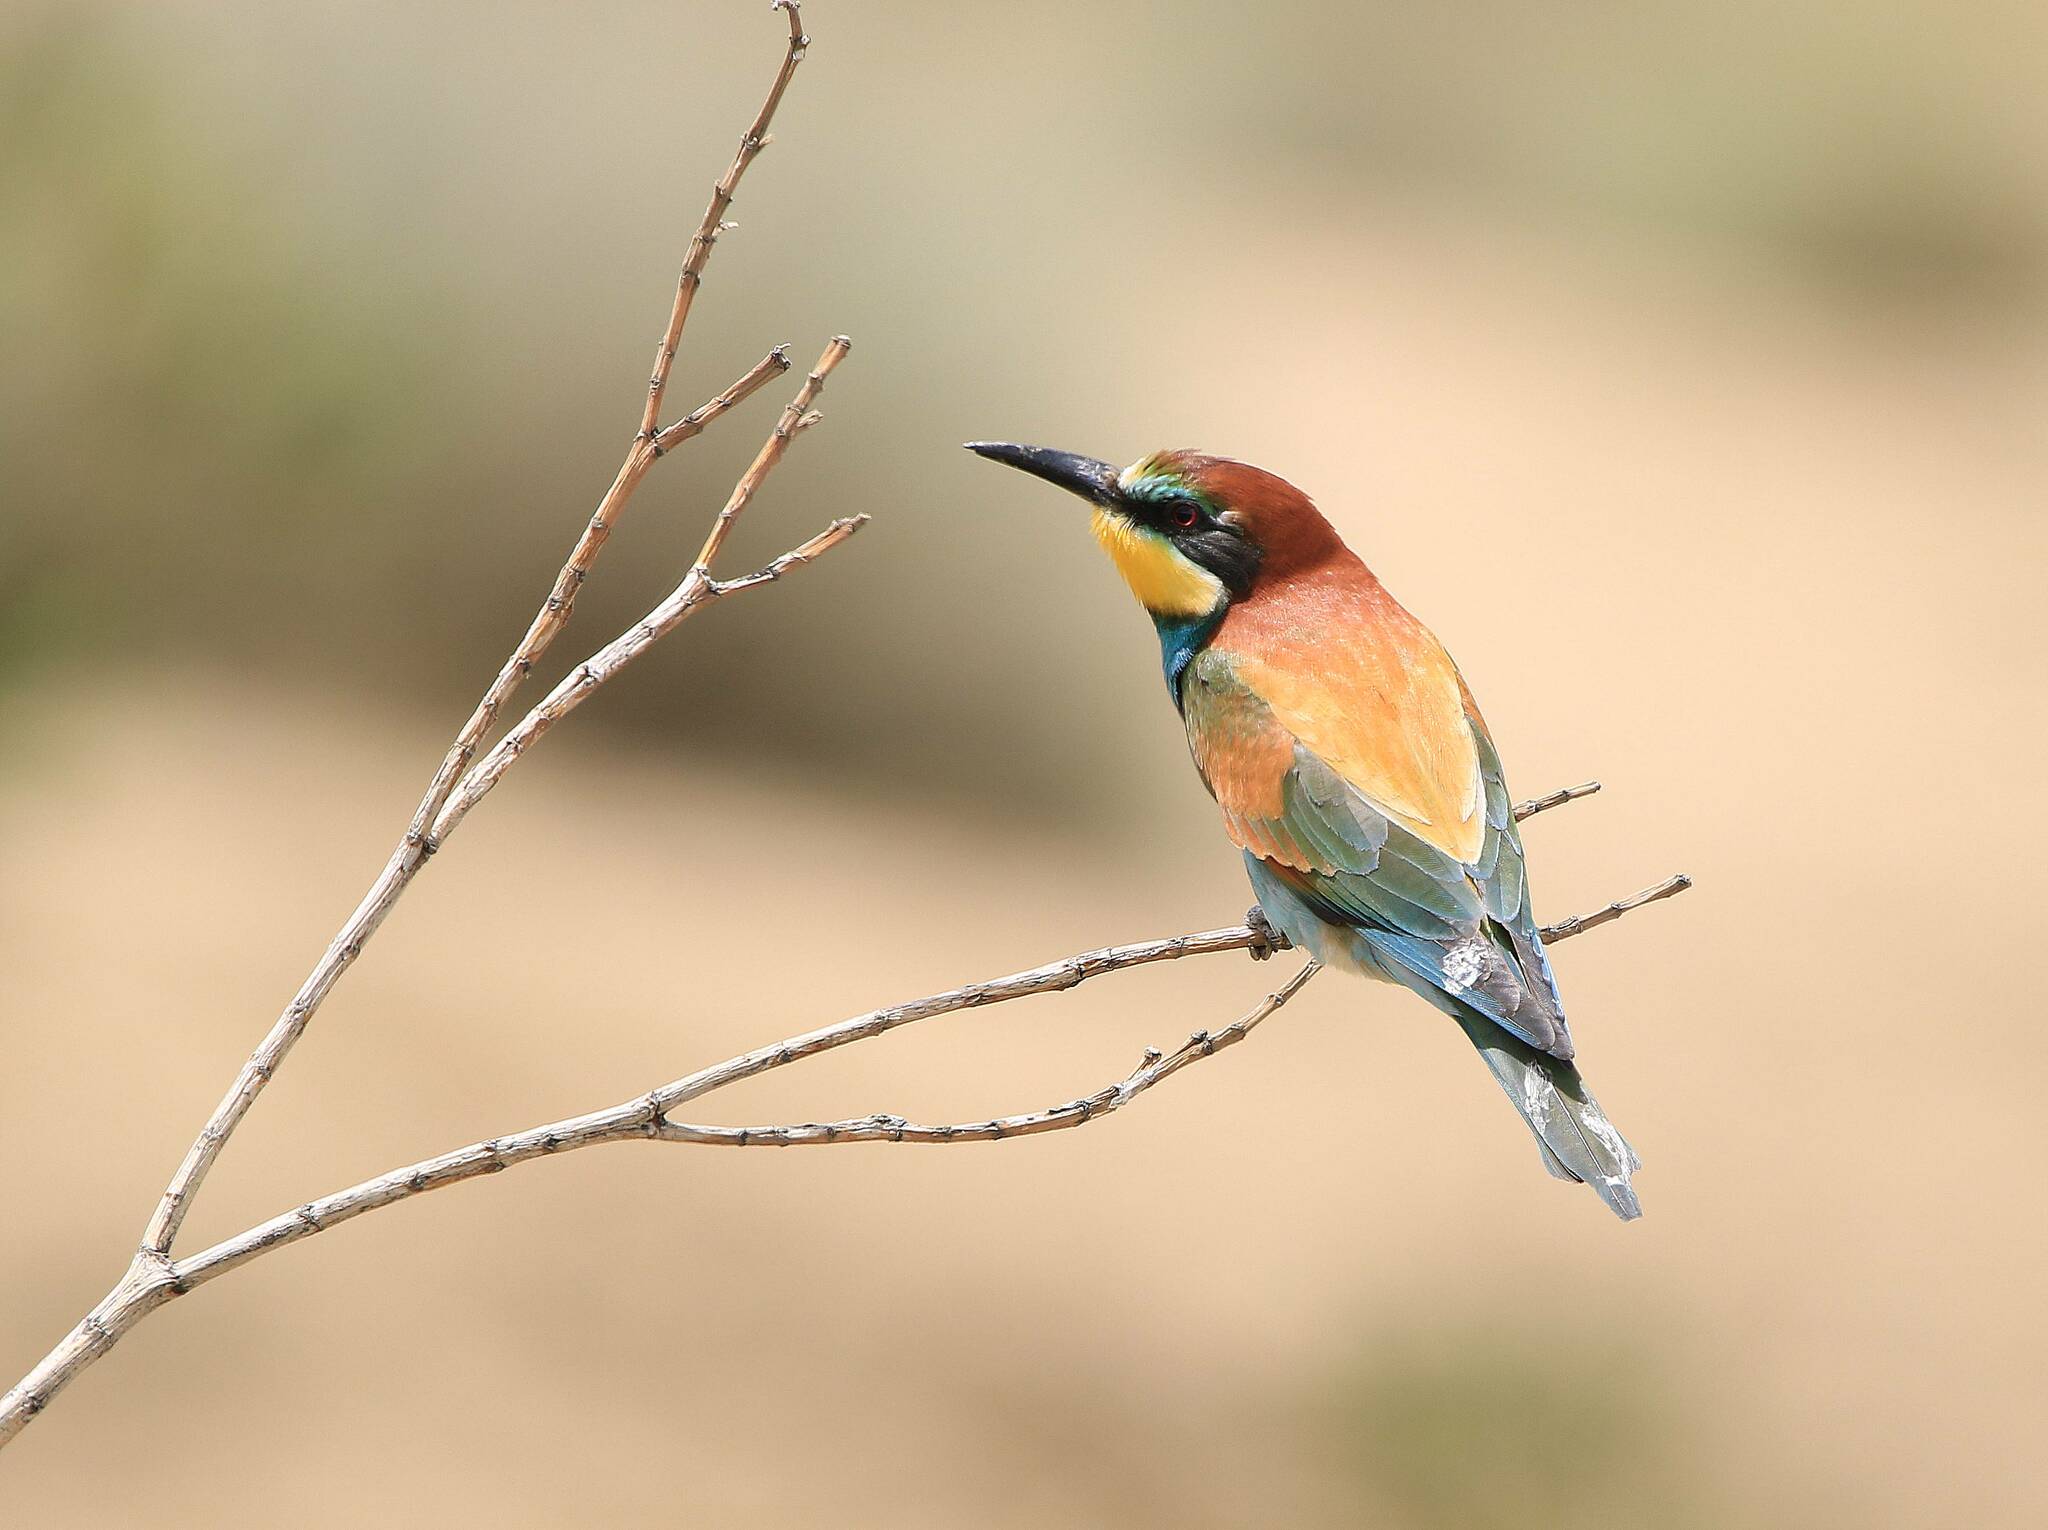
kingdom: Animalia
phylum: Chordata
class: Aves
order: Coraciiformes
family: Meropidae
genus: Merops
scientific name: Merops apiaster
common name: European bee-eater
